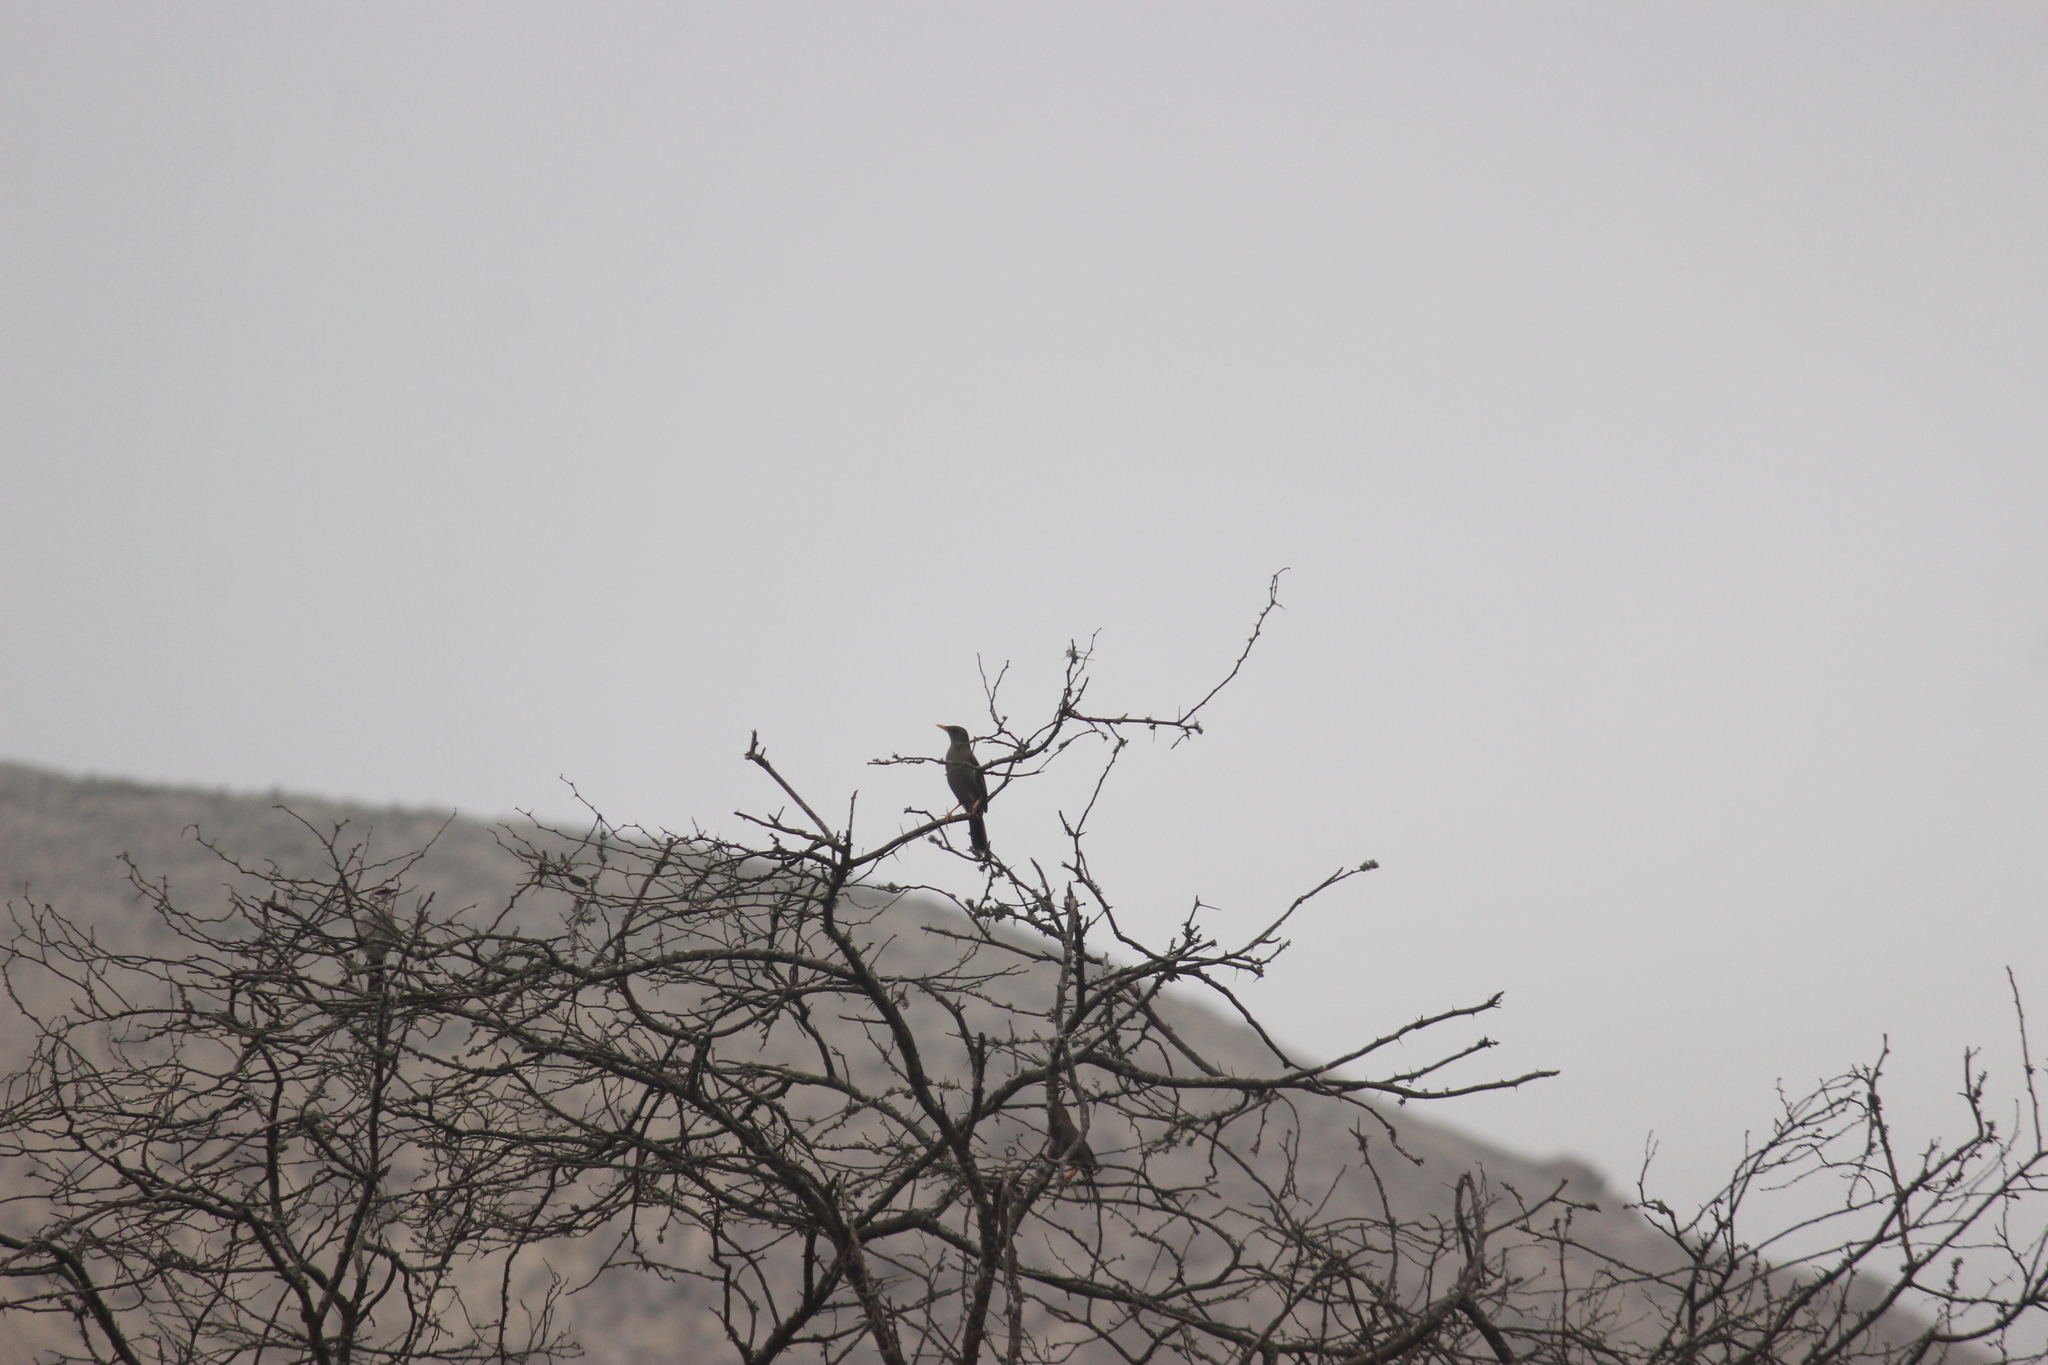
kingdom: Animalia
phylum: Chordata
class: Aves
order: Passeriformes
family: Turdidae
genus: Turdus
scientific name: Turdus chiguanco
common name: Chiguanco thrush
